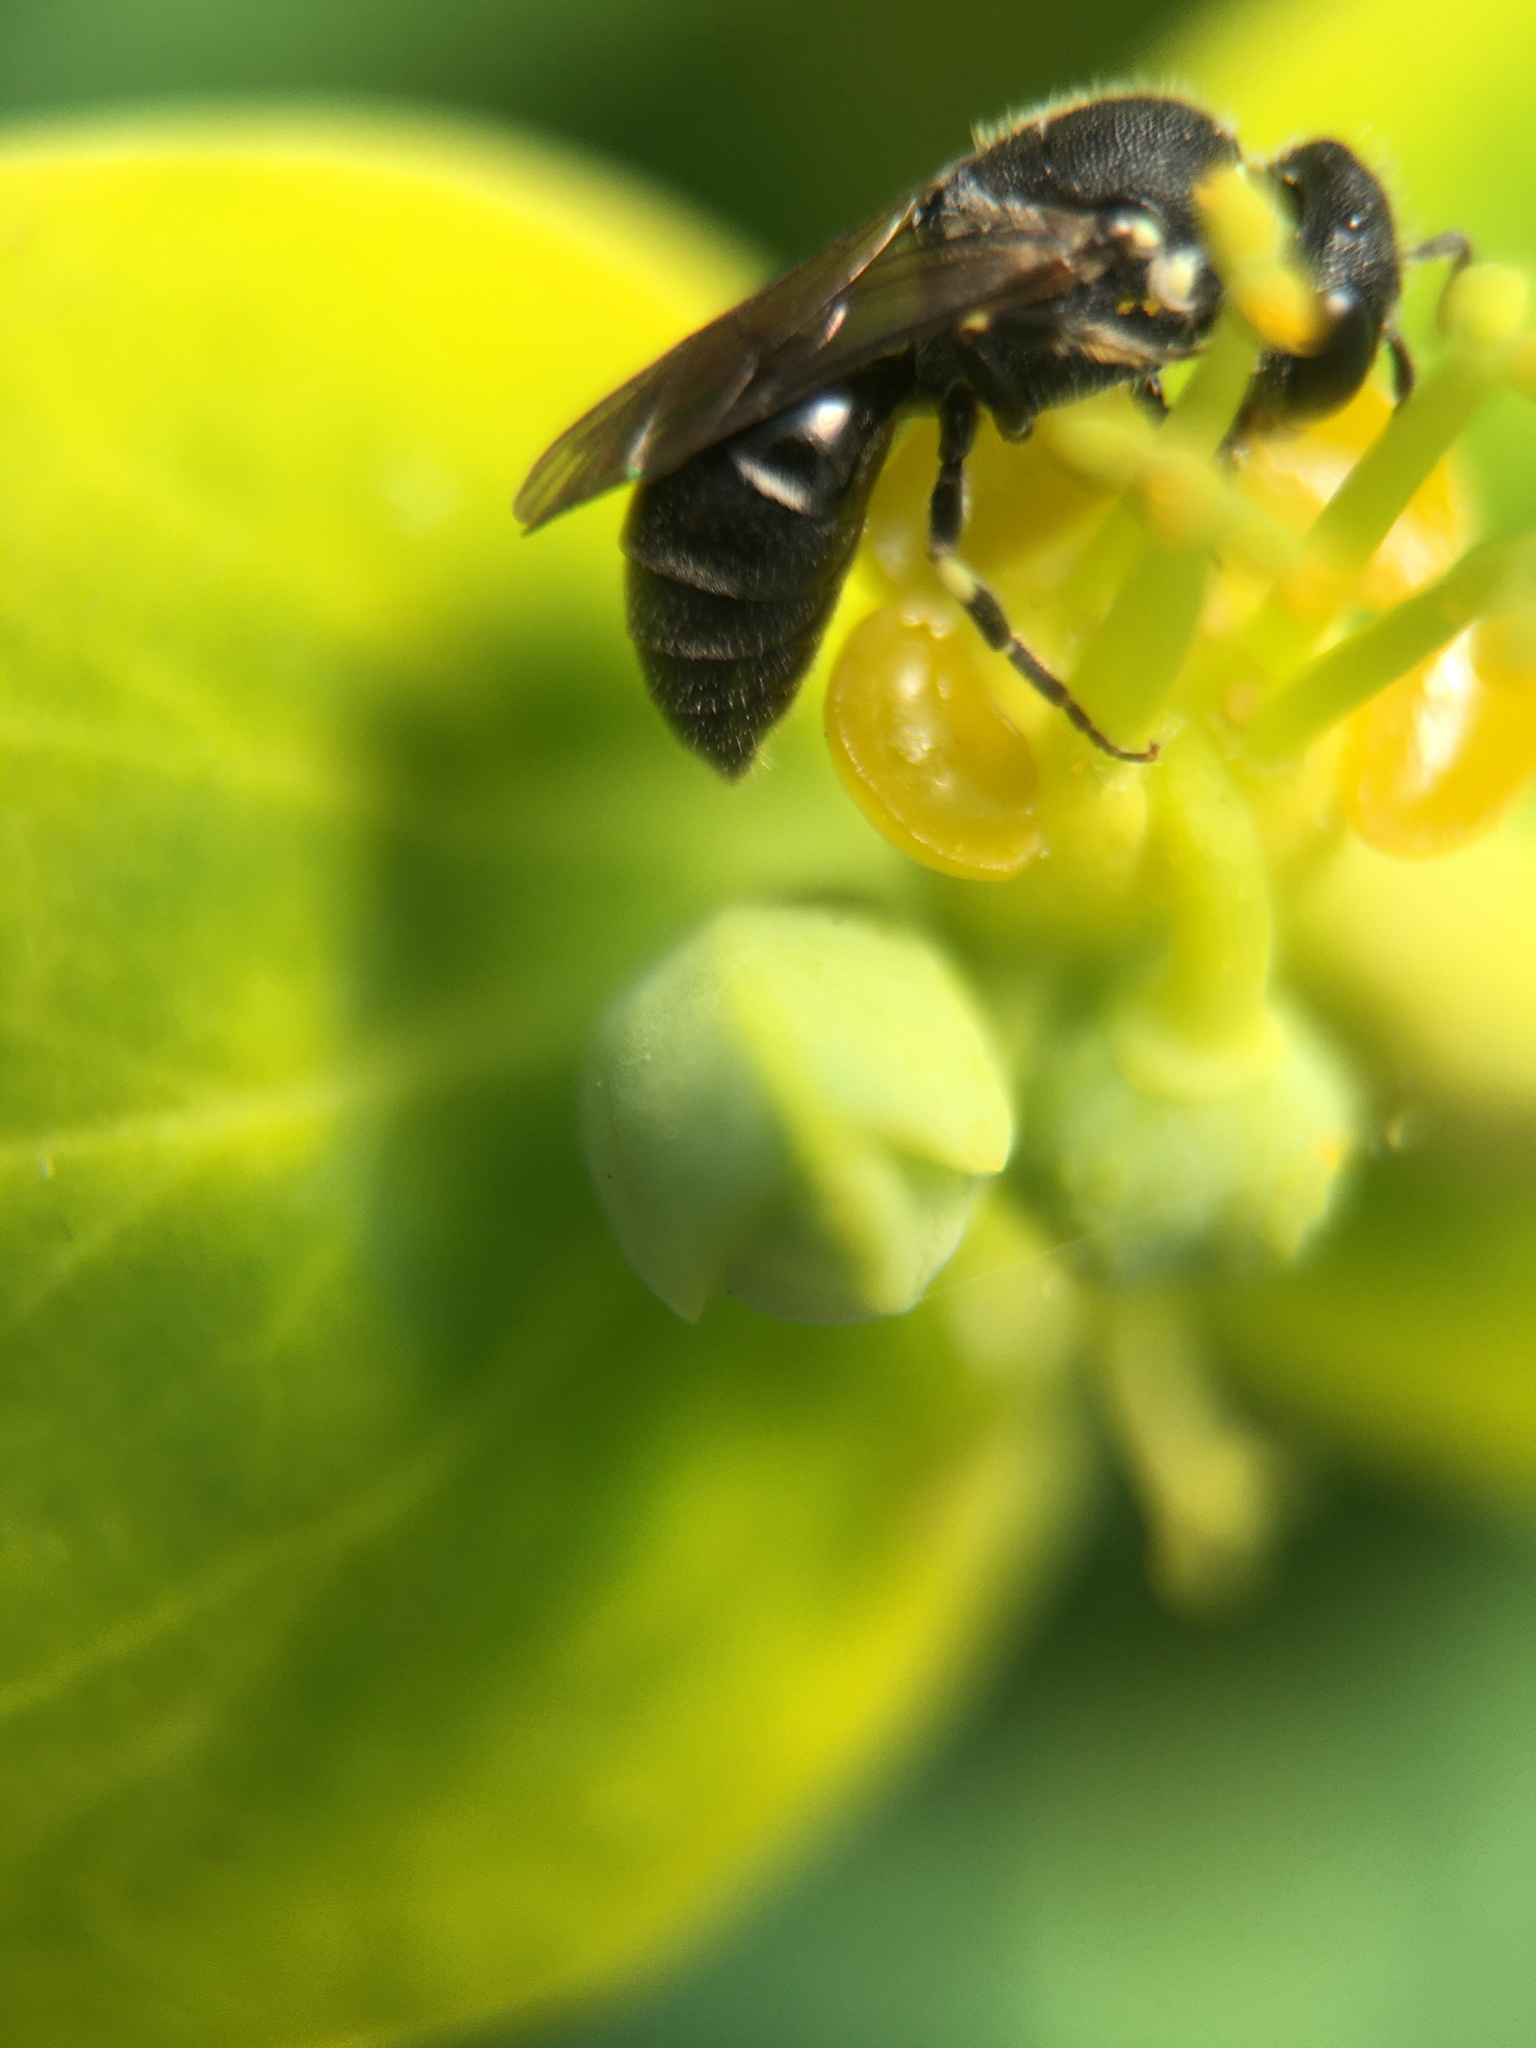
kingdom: Animalia
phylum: Arthropoda
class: Insecta
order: Hymenoptera
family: Colletidae
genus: Hylaeus
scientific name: Hylaeus
